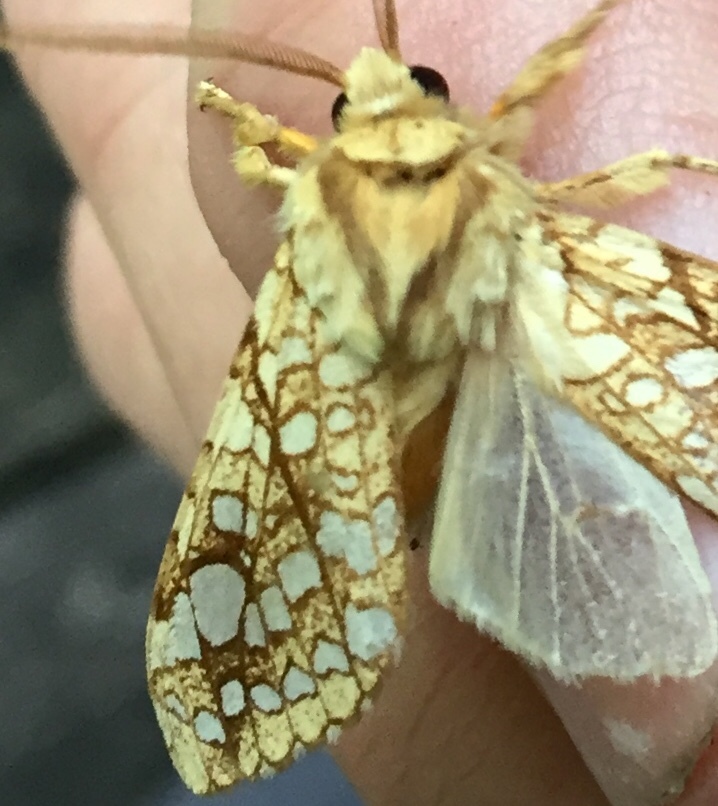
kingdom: Animalia
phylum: Arthropoda
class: Insecta
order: Lepidoptera
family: Erebidae
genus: Lophocampa
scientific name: Lophocampa caryae
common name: Hickory tussock moth
